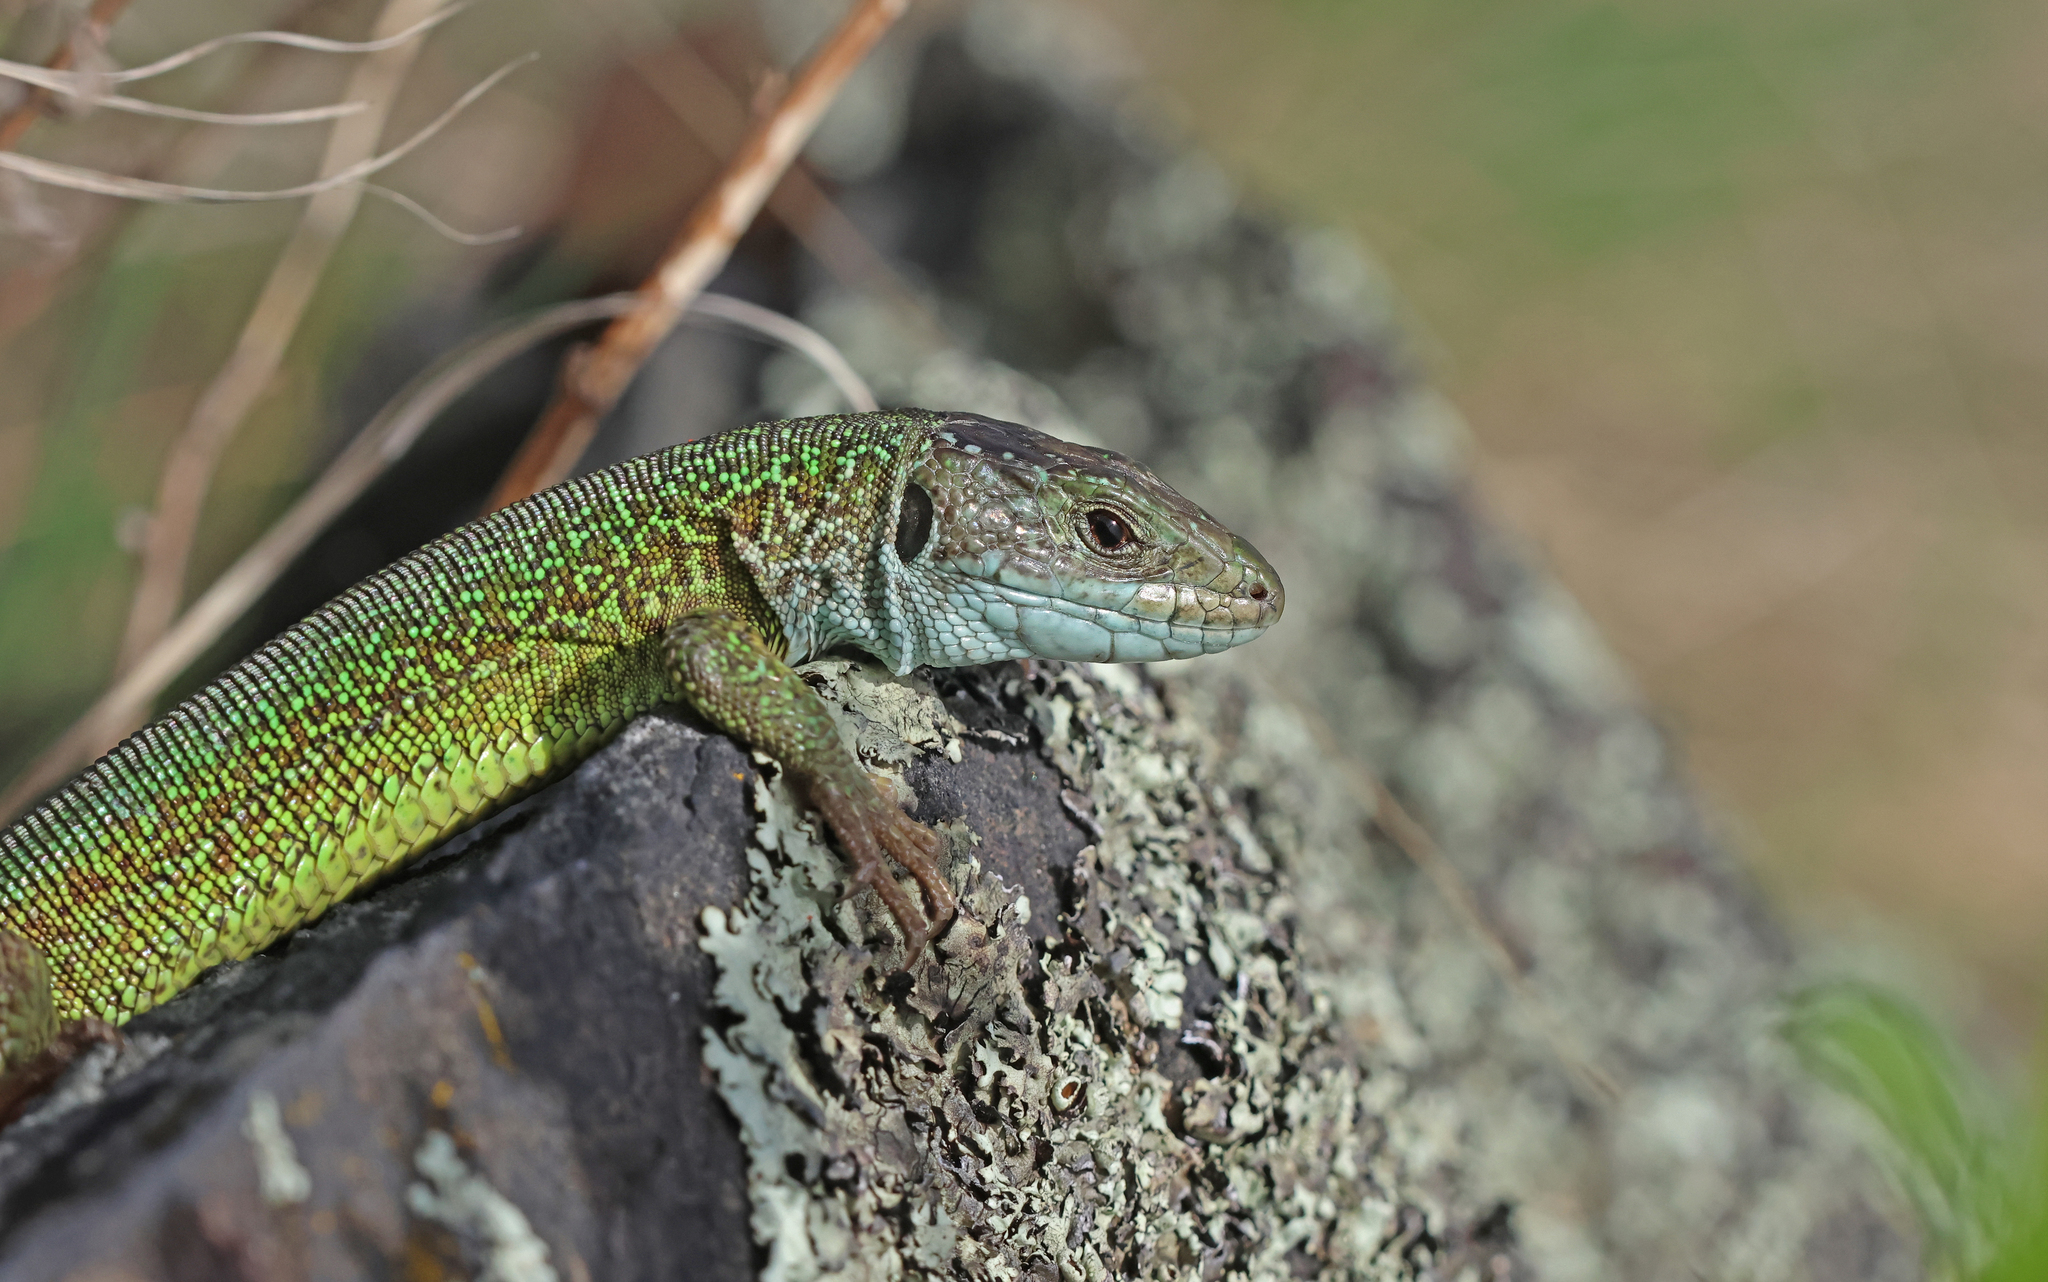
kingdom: Animalia
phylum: Chordata
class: Squamata
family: Lacertidae
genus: Lacerta
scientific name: Lacerta viridis
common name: European green lizard
